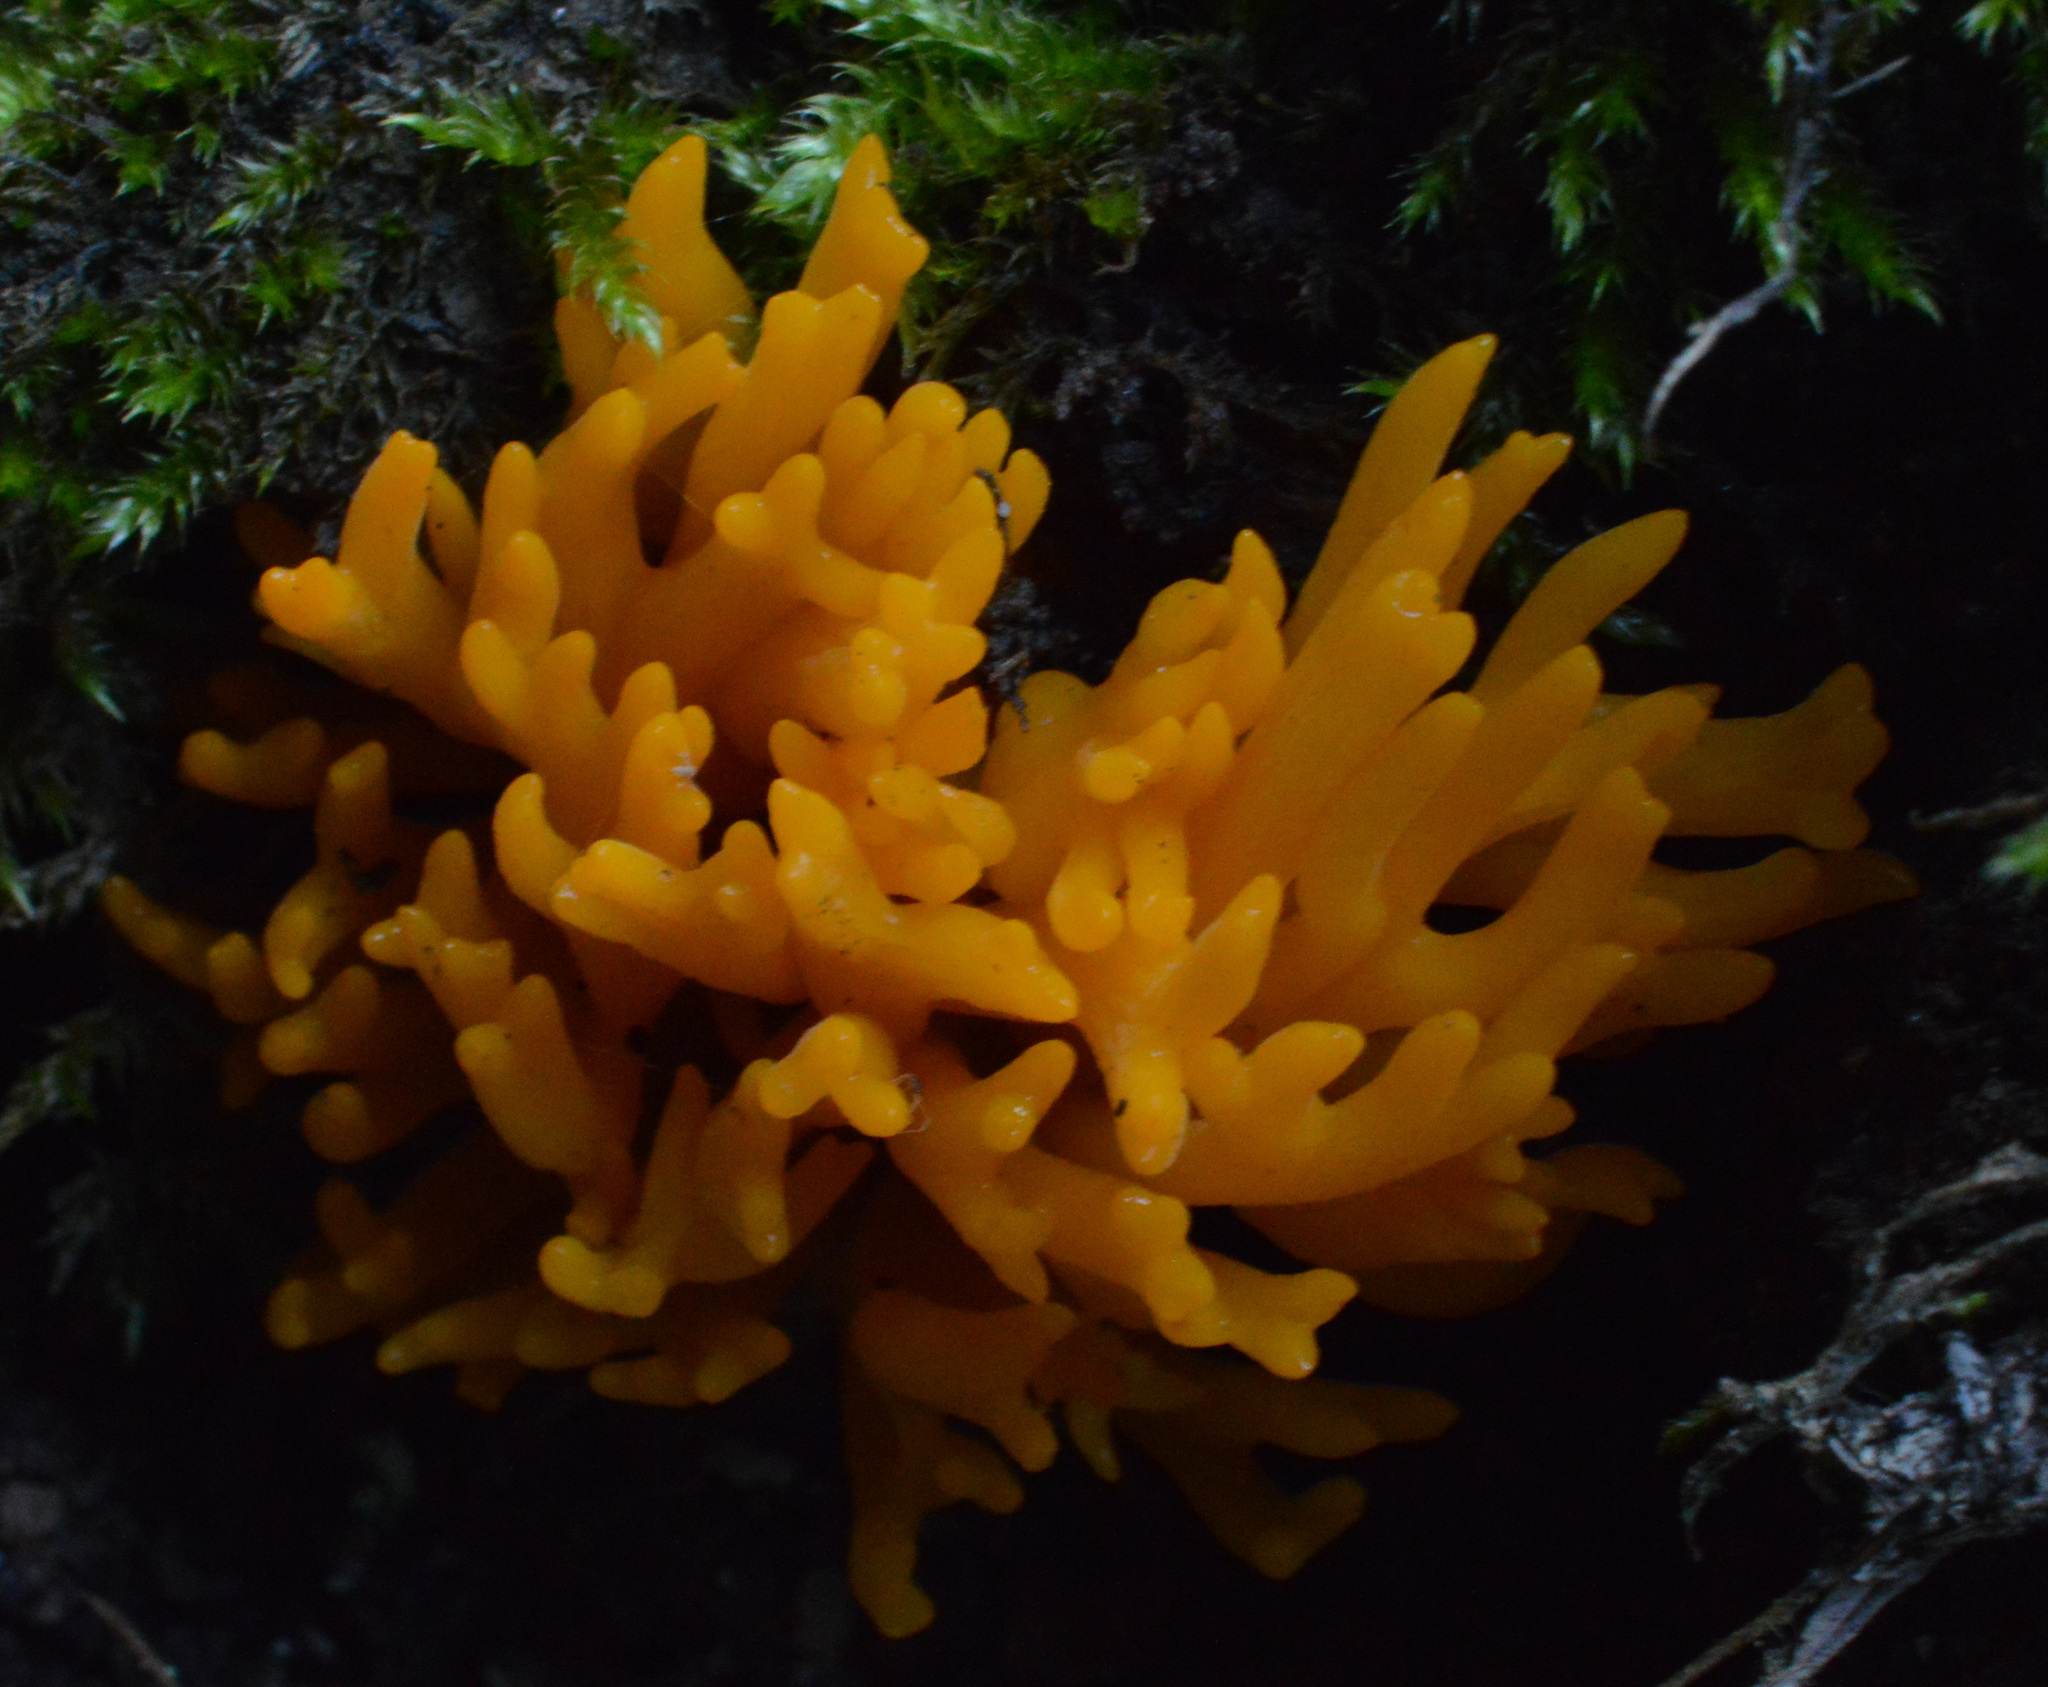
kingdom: Fungi
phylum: Basidiomycota
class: Dacrymycetes
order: Dacrymycetales
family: Dacrymycetaceae
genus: Calocera
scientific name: Calocera viscosa
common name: Yellow stagshorn
